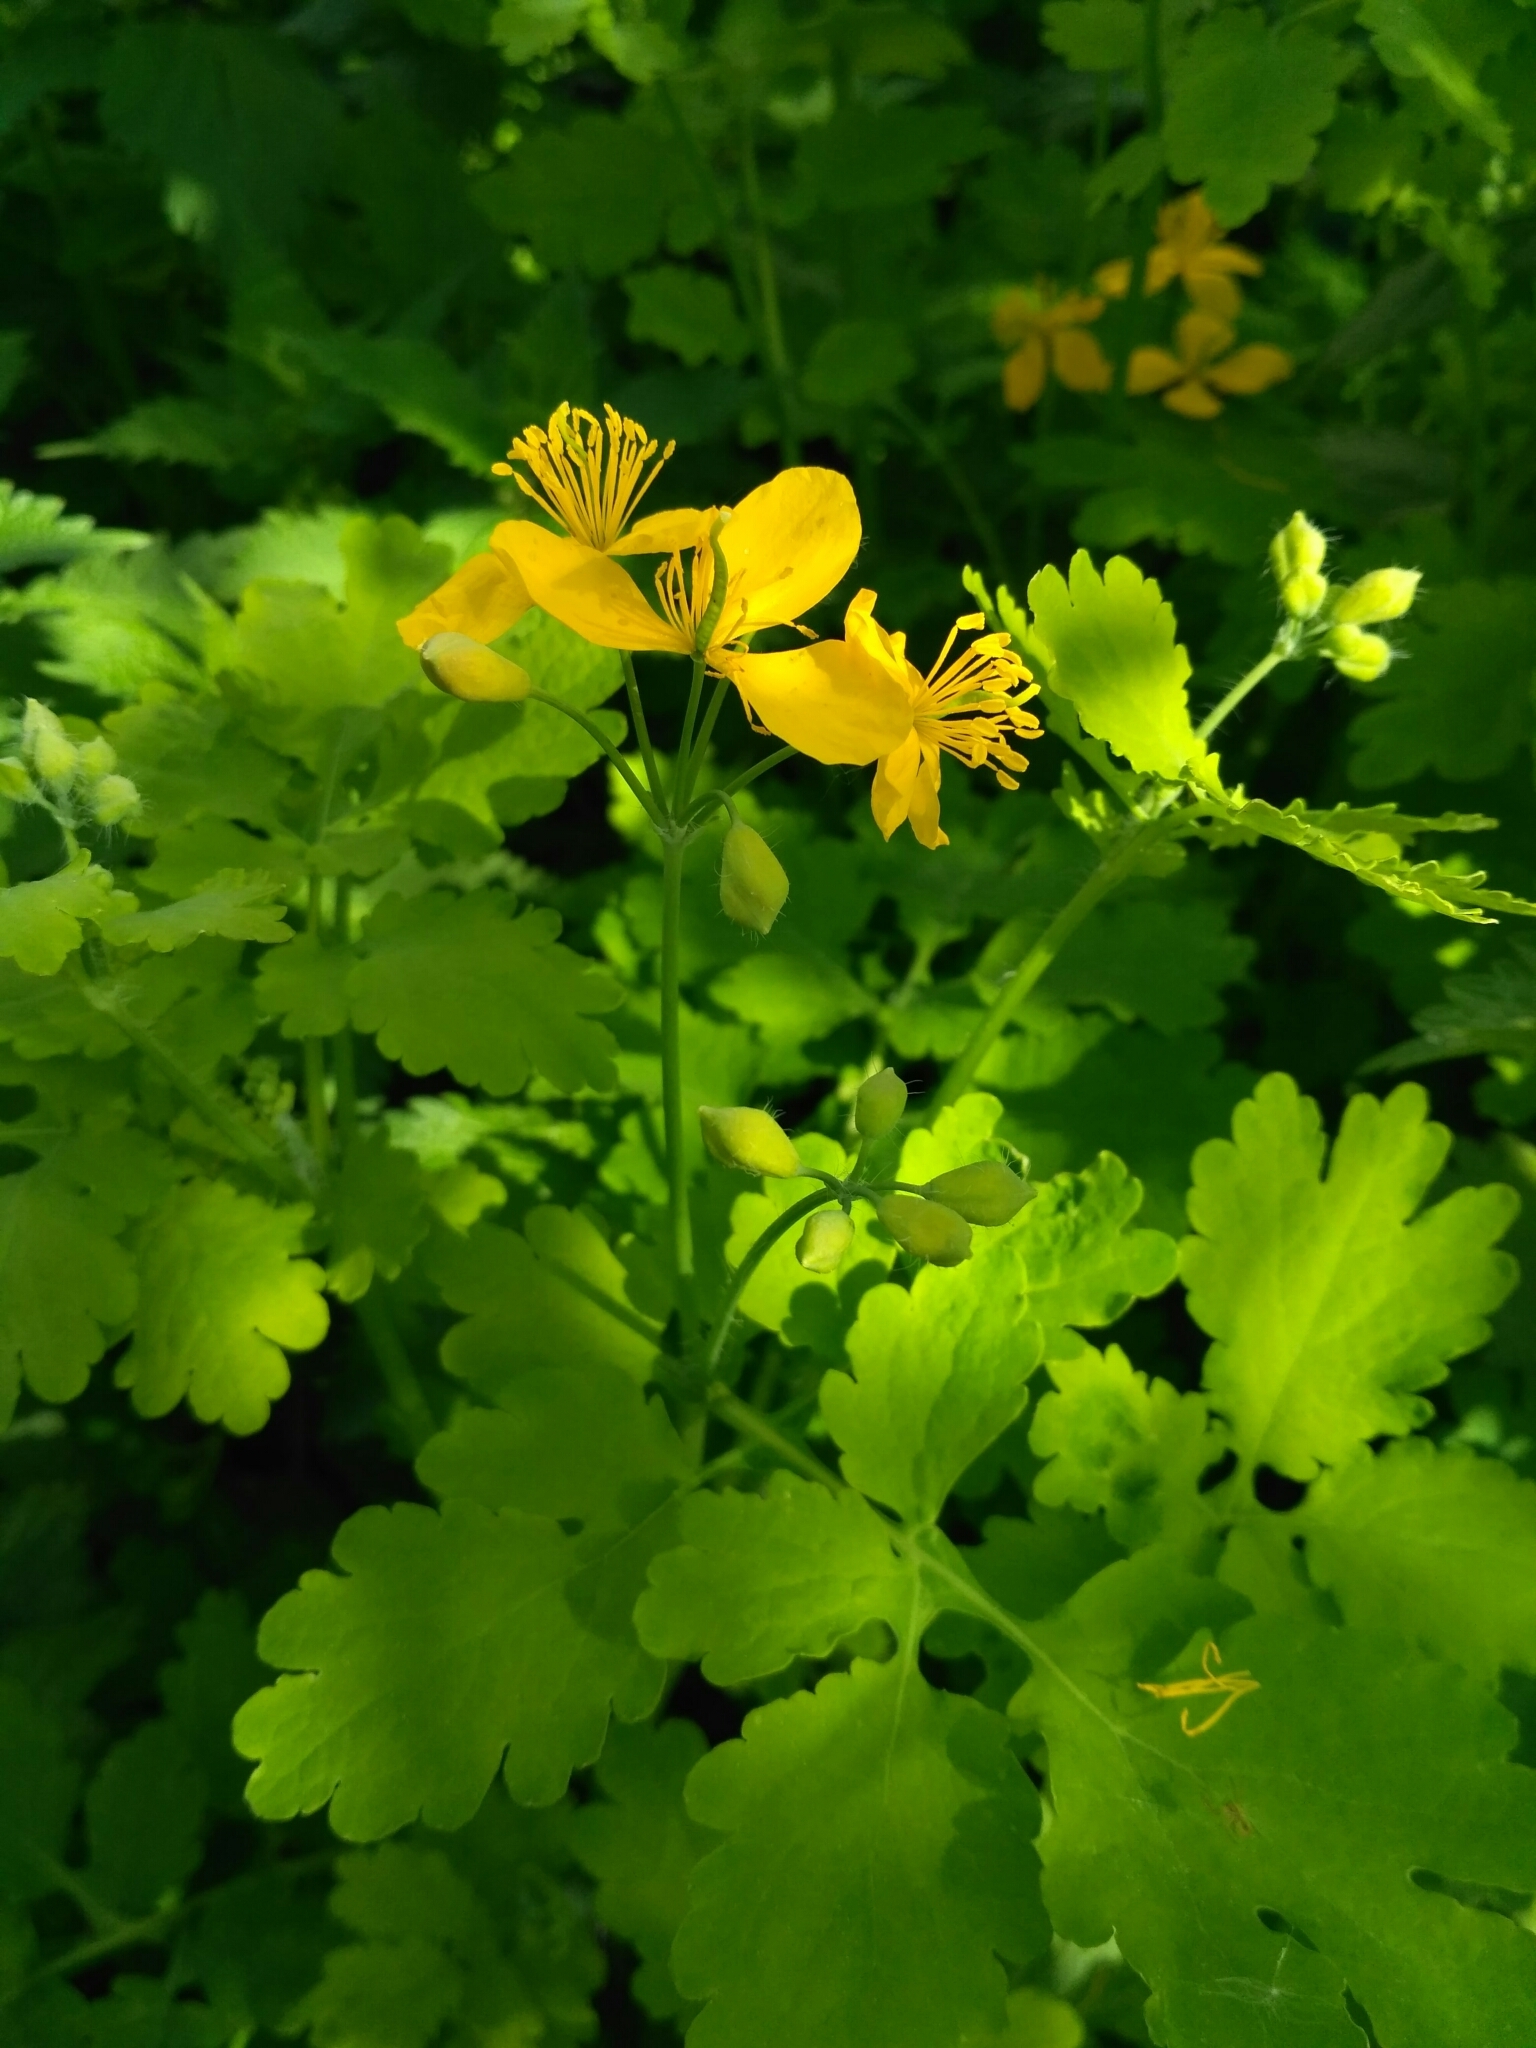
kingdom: Plantae
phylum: Tracheophyta
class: Magnoliopsida
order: Ranunculales
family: Papaveraceae
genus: Chelidonium
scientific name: Chelidonium majus
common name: Greater celandine
